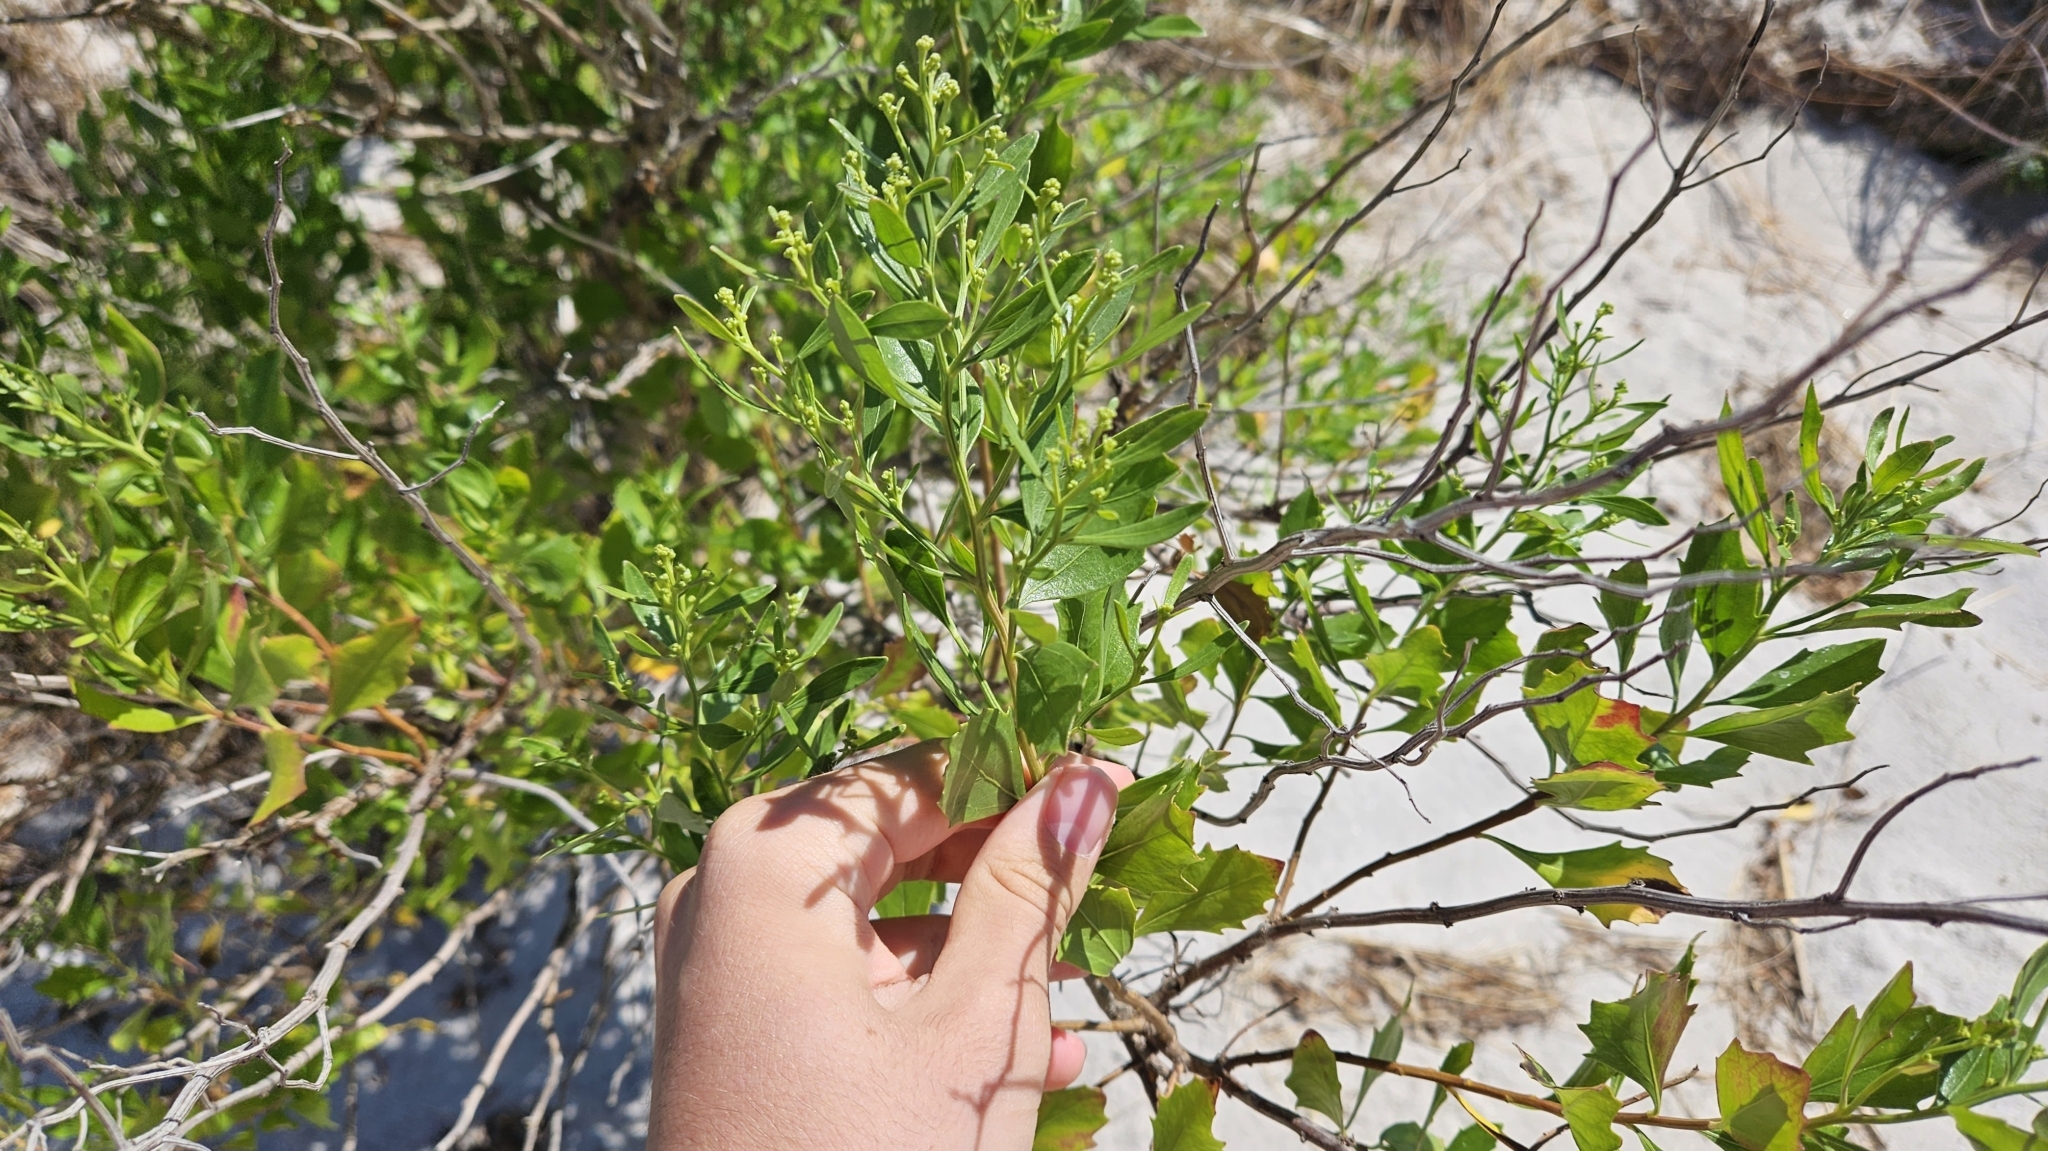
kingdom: Plantae
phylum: Tracheophyta
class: Magnoliopsida
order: Asterales
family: Asteraceae
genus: Baccharis
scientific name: Baccharis halimifolia
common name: Eastern baccharis
